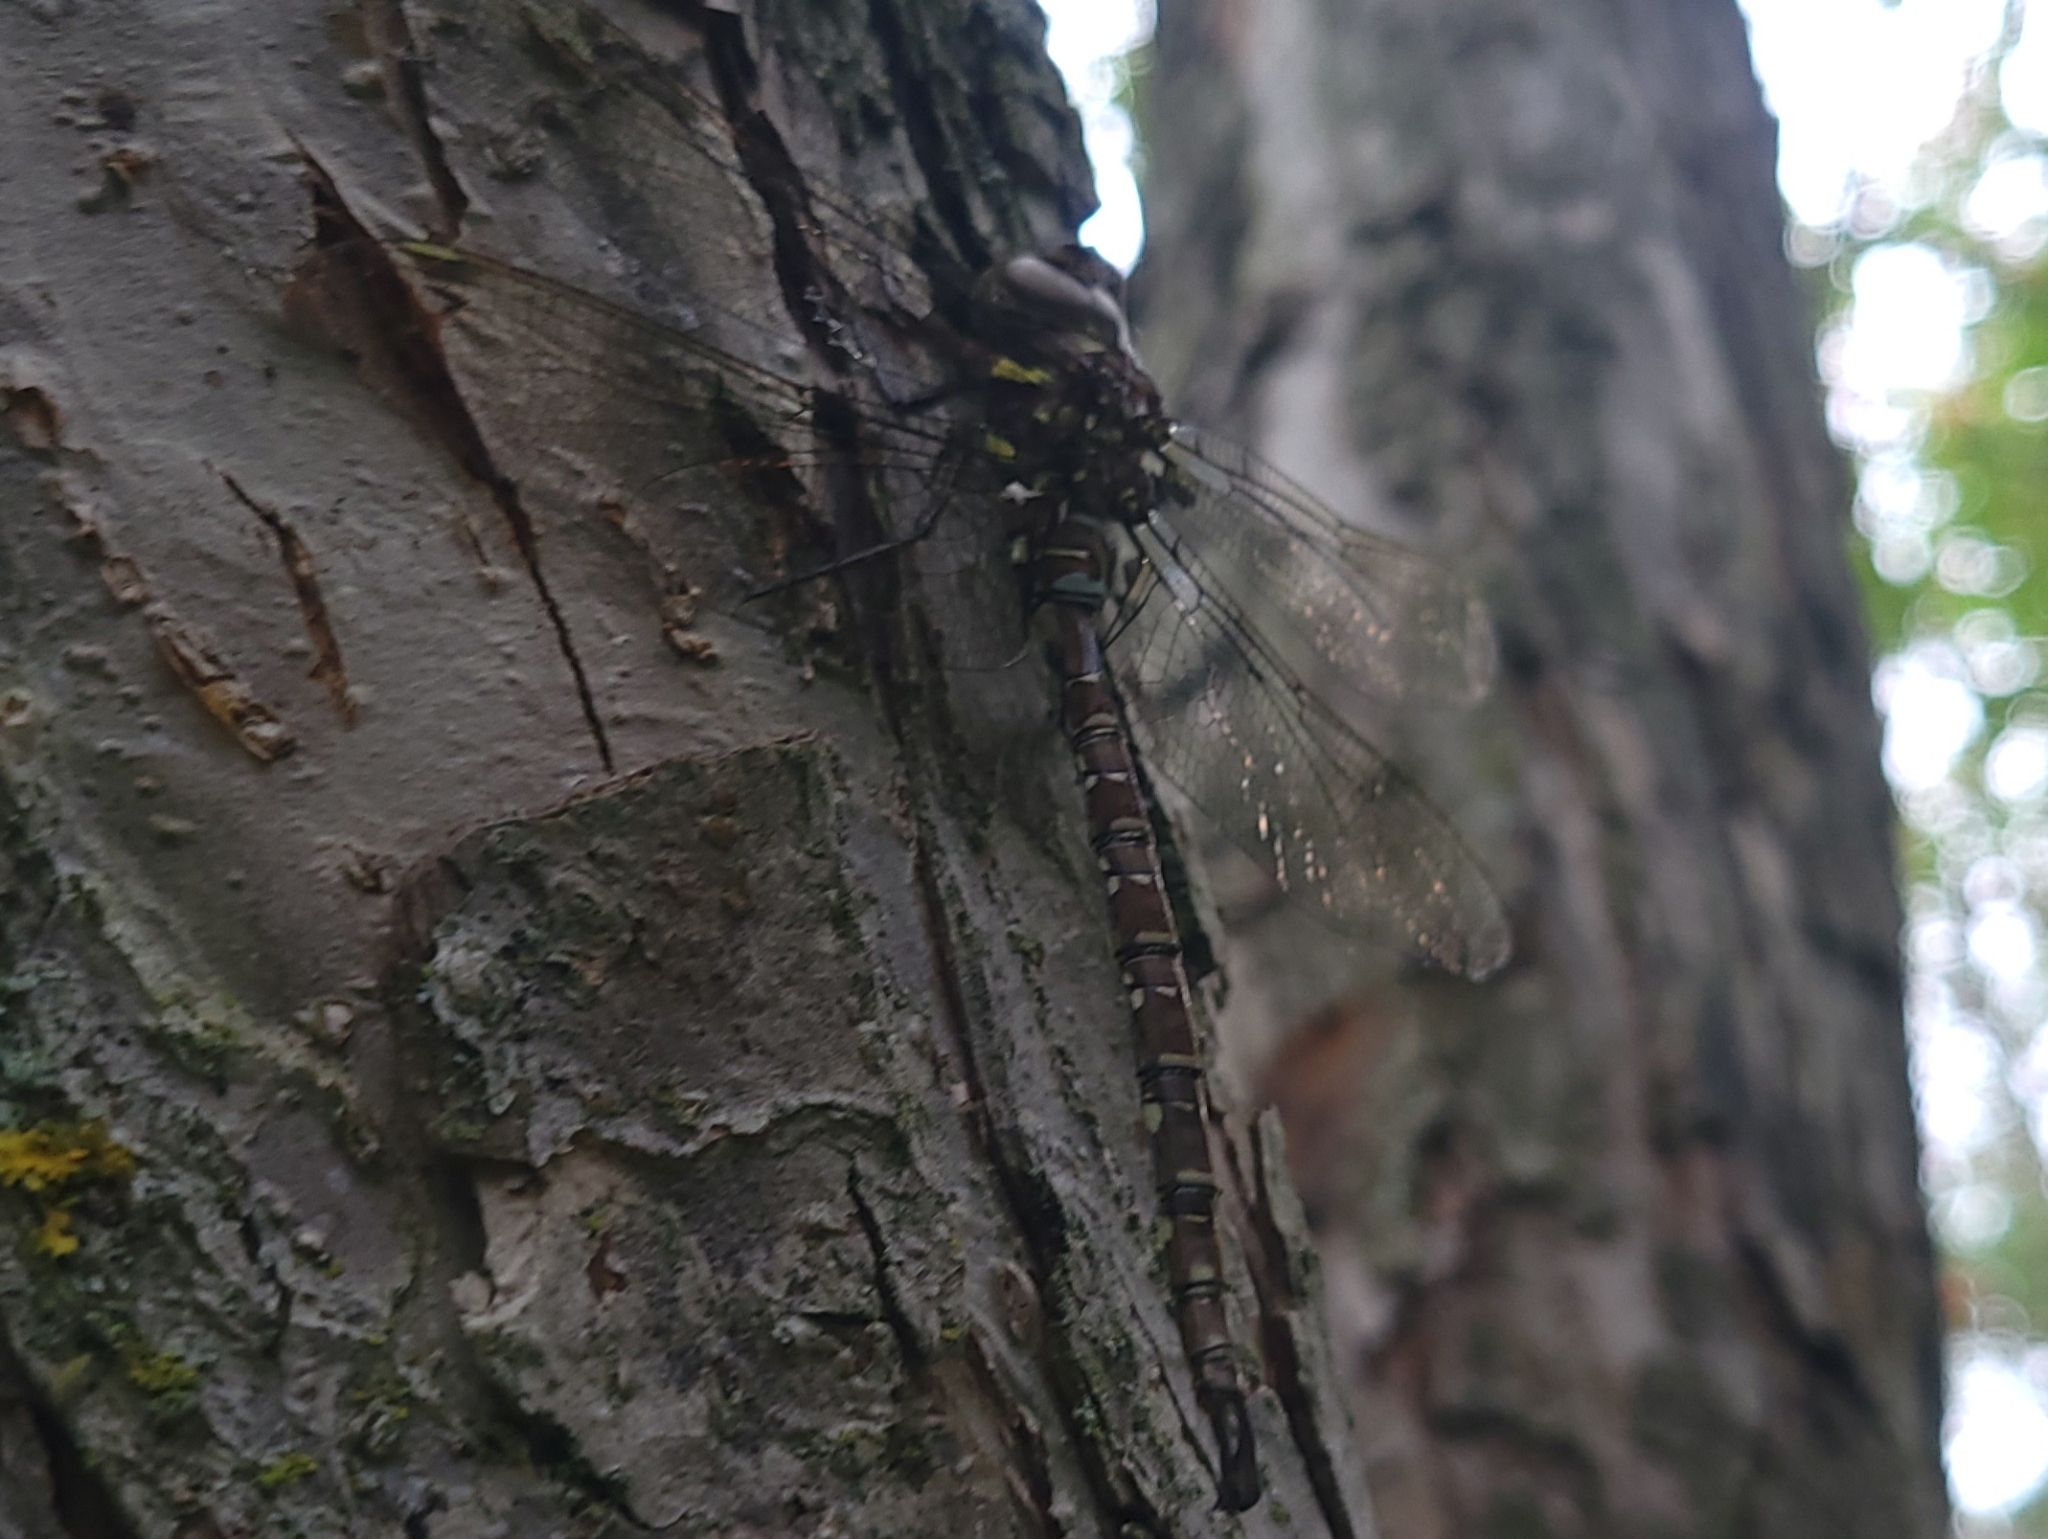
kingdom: Animalia
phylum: Arthropoda
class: Insecta
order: Odonata
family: Aeshnidae
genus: Aeshna
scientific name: Aeshna umbrosa
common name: Shadow darner
